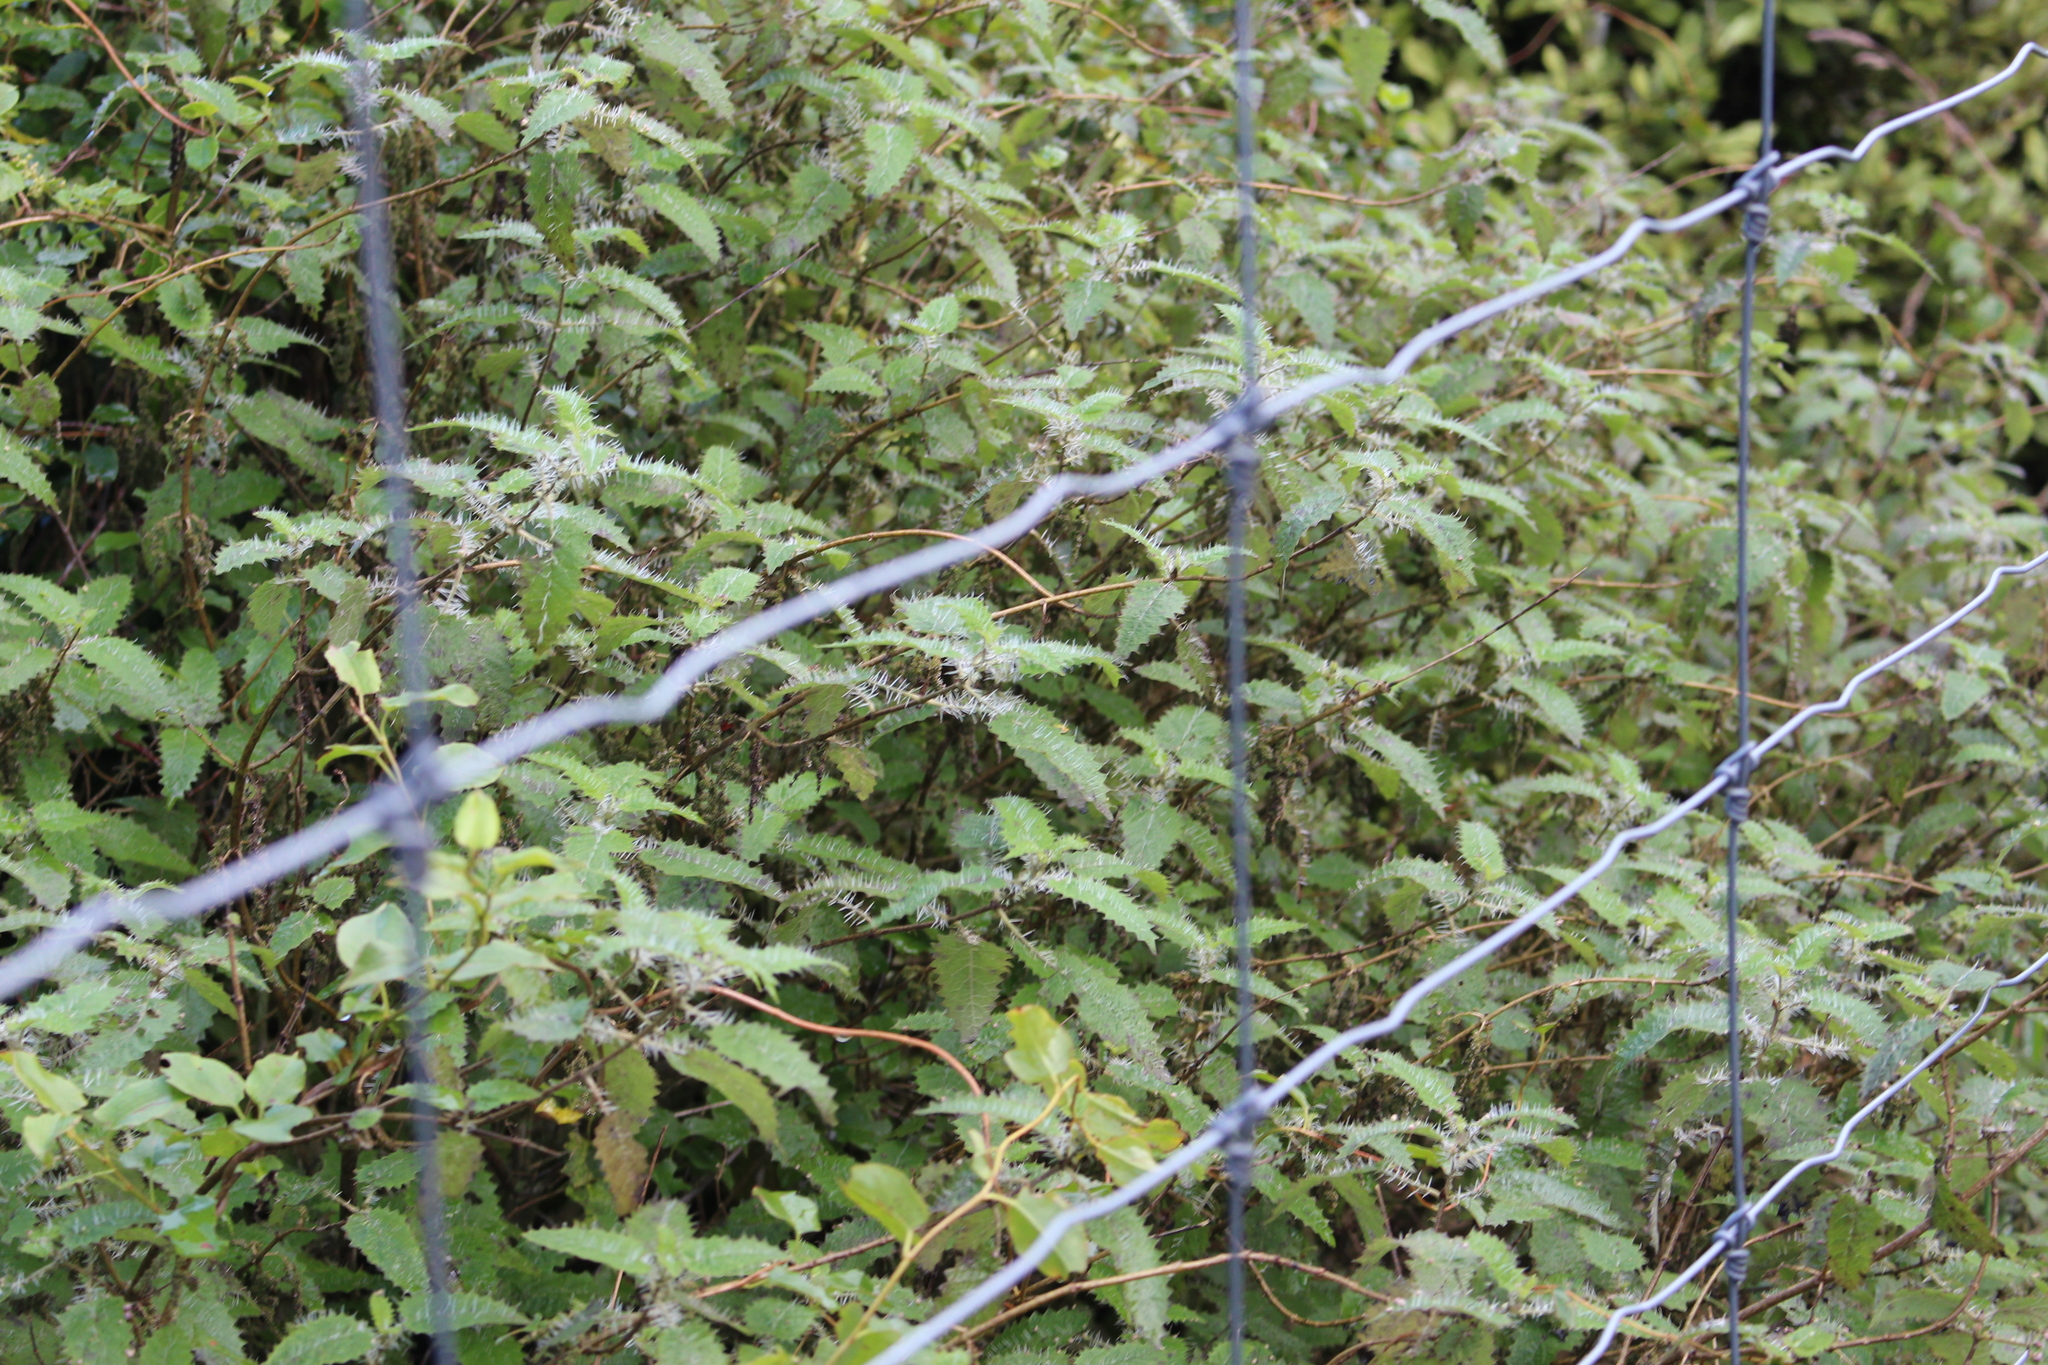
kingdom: Plantae
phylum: Tracheophyta
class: Magnoliopsida
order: Rosales
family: Urticaceae
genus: Urtica
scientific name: Urtica ferox
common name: Tree nettle
